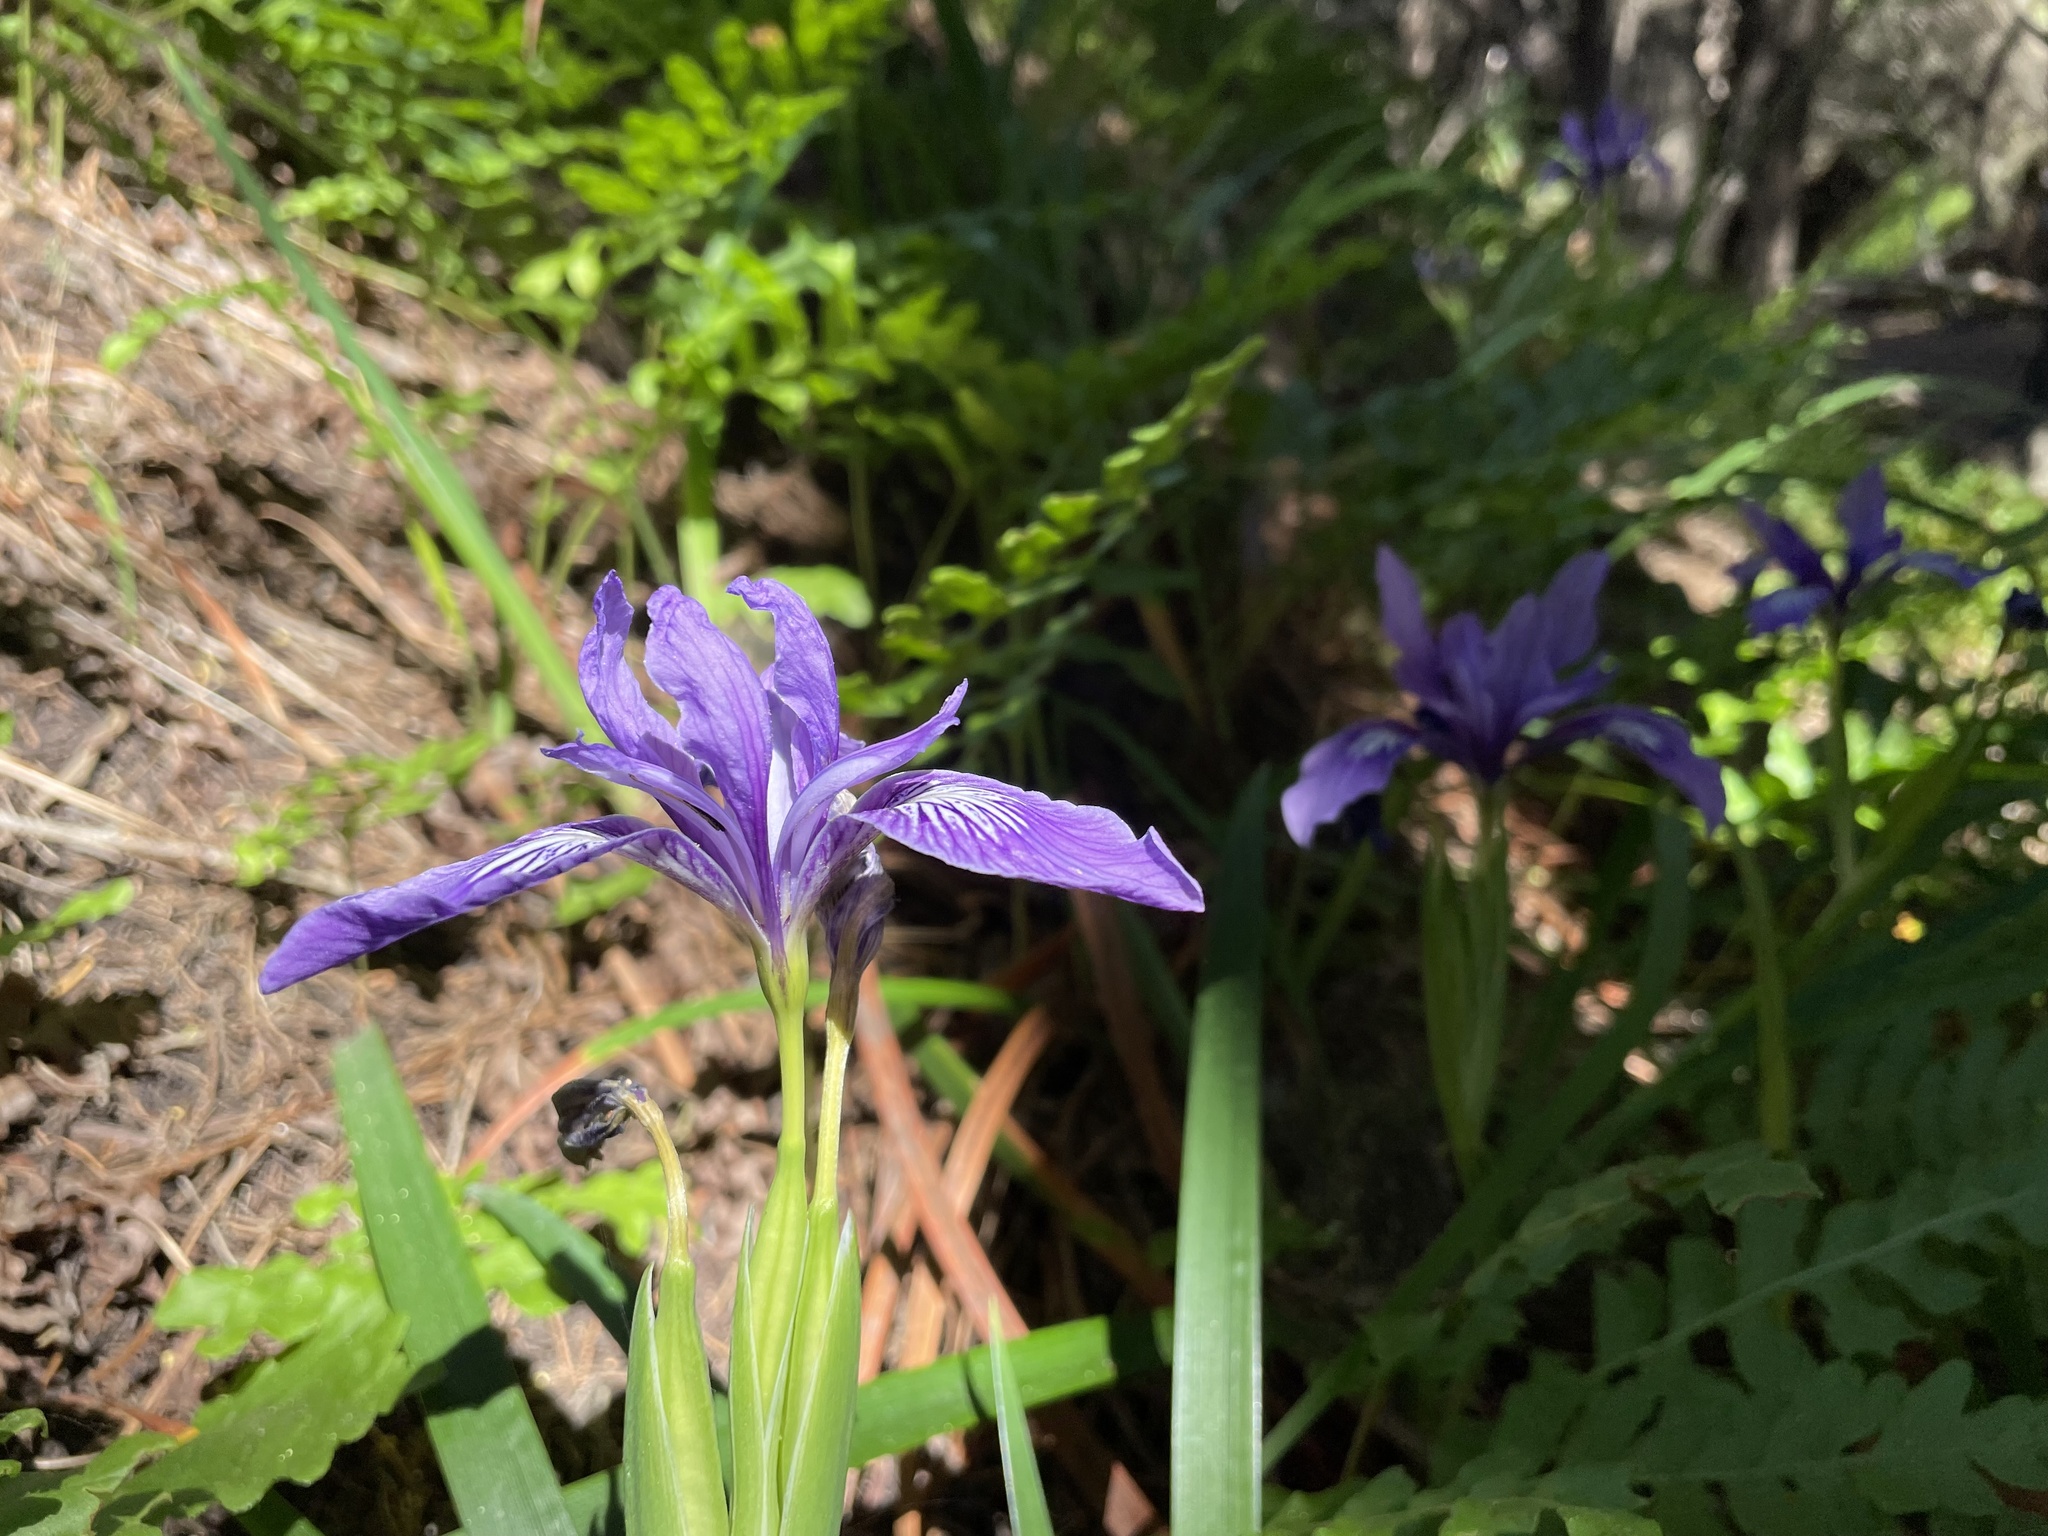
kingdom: Plantae
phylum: Tracheophyta
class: Liliopsida
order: Asparagales
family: Iridaceae
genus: Iris
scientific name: Iris douglasiana
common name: Marin iris
